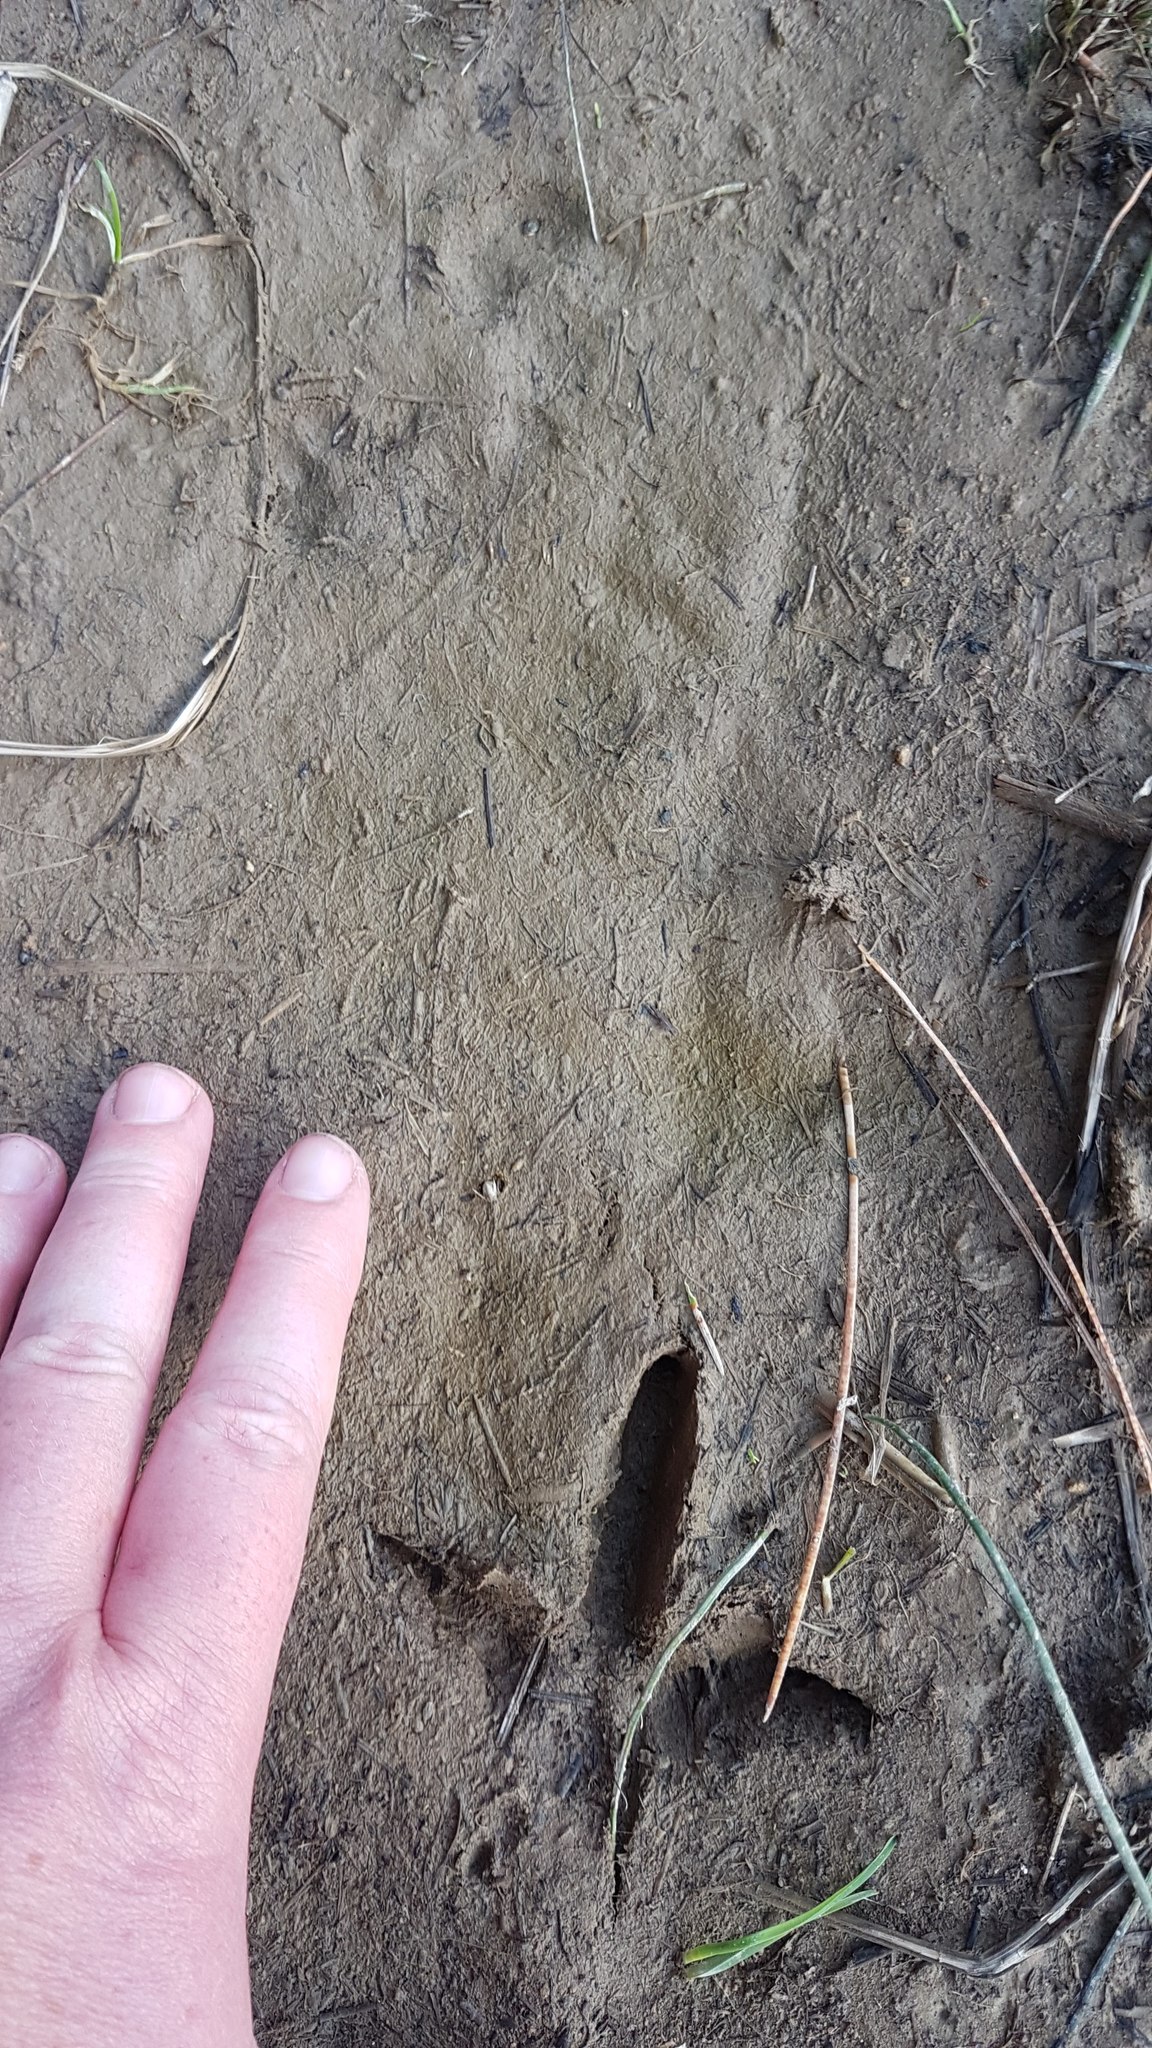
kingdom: Animalia
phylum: Chordata
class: Aves
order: Apterygiformes
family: Apterygidae
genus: Apteryx
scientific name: Apteryx mantelli
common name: North island brown kiwi
